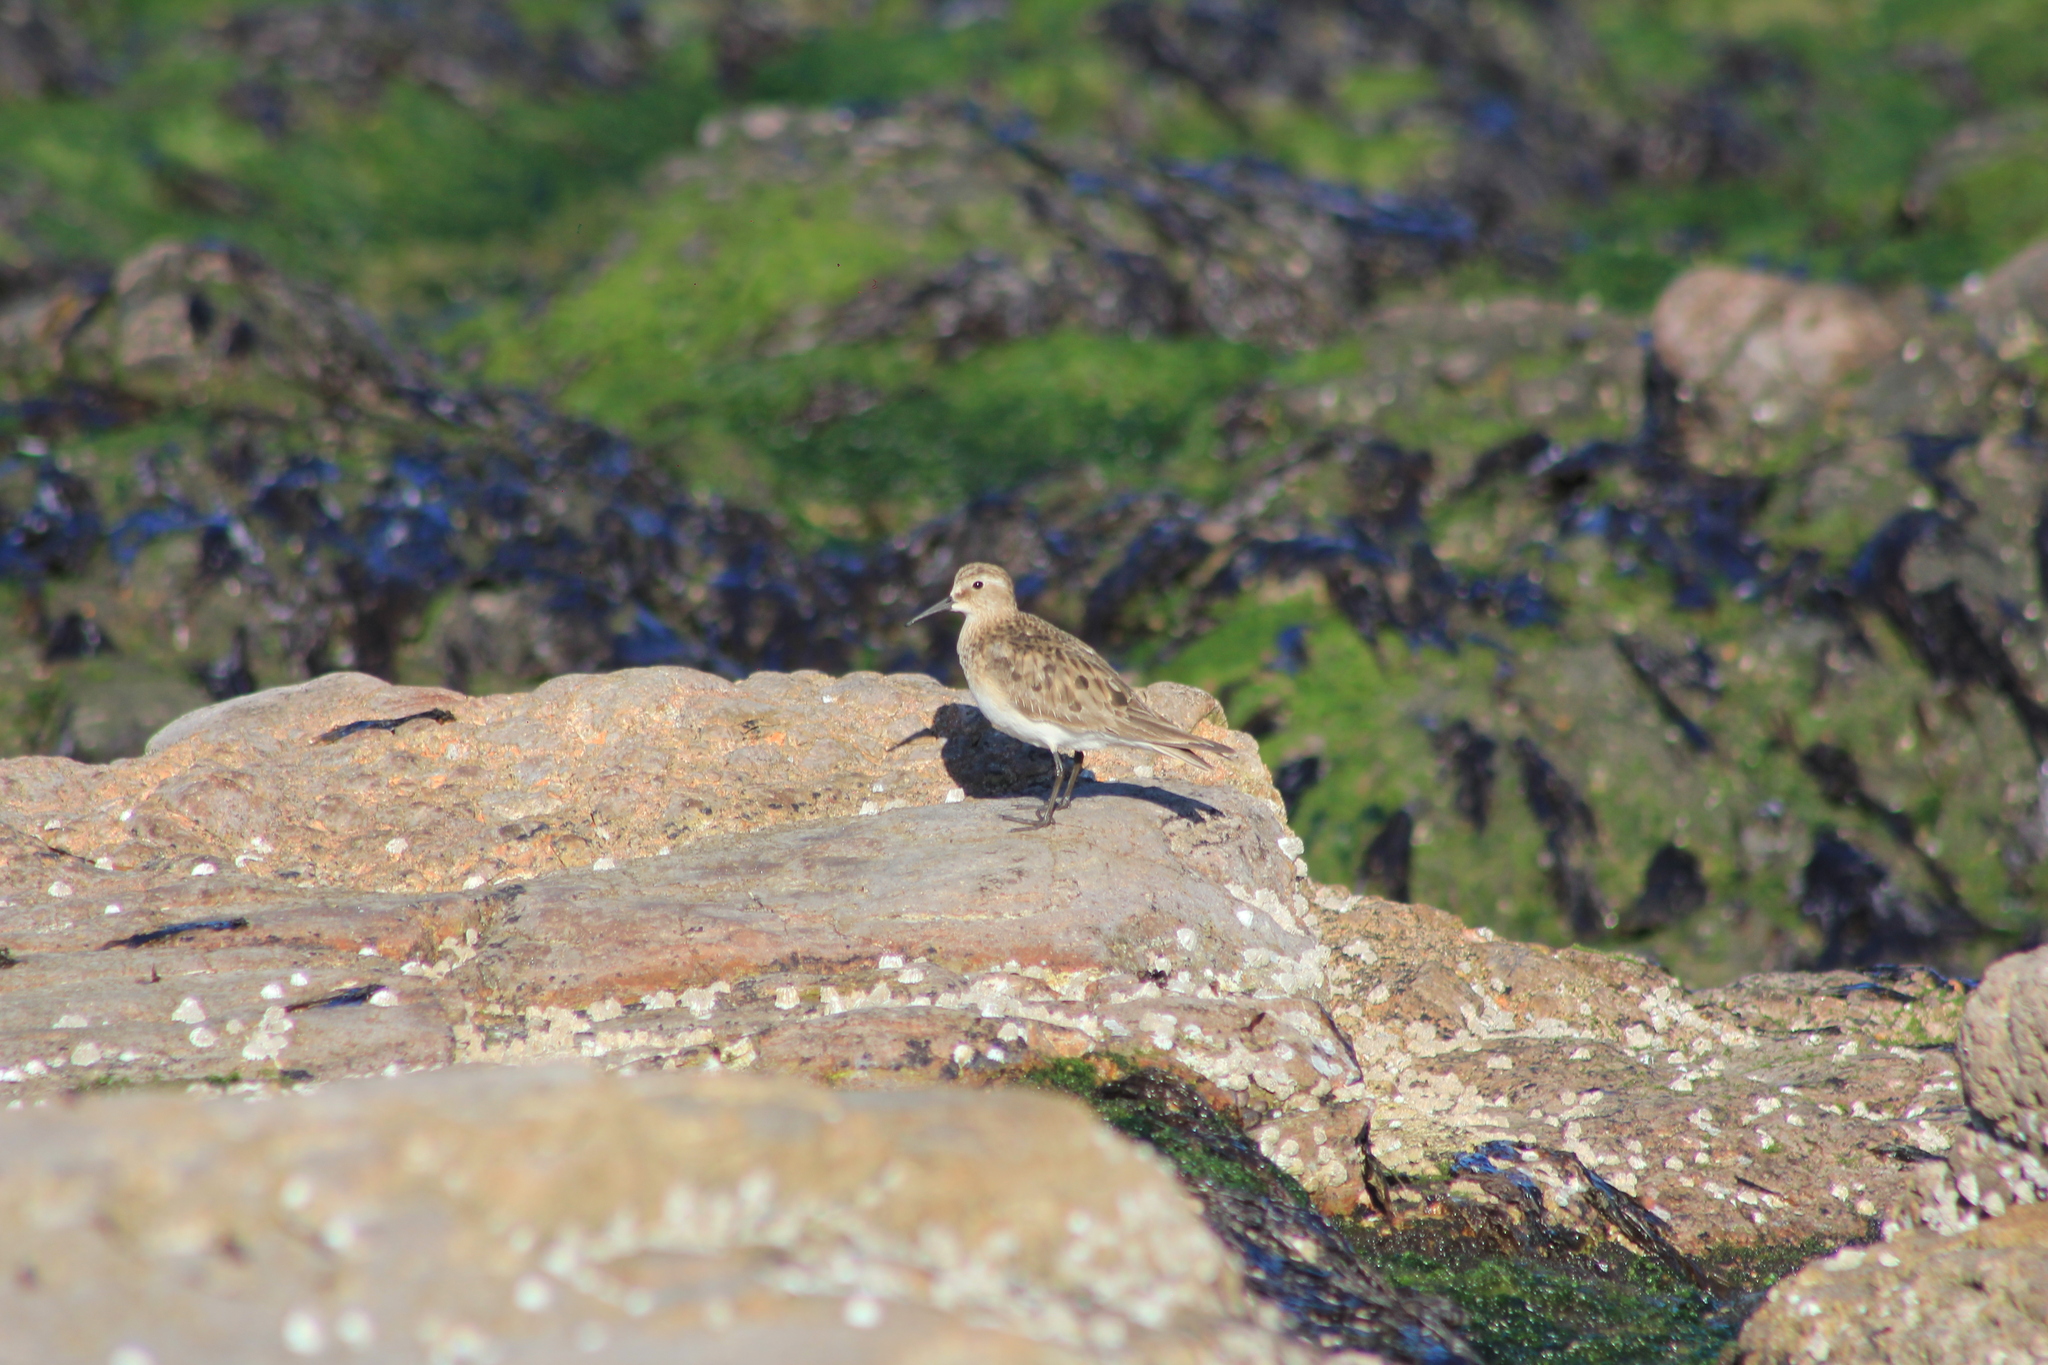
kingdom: Animalia
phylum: Chordata
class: Aves
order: Charadriiformes
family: Scolopacidae
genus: Calidris
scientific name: Calidris bairdii
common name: Baird's sandpiper
